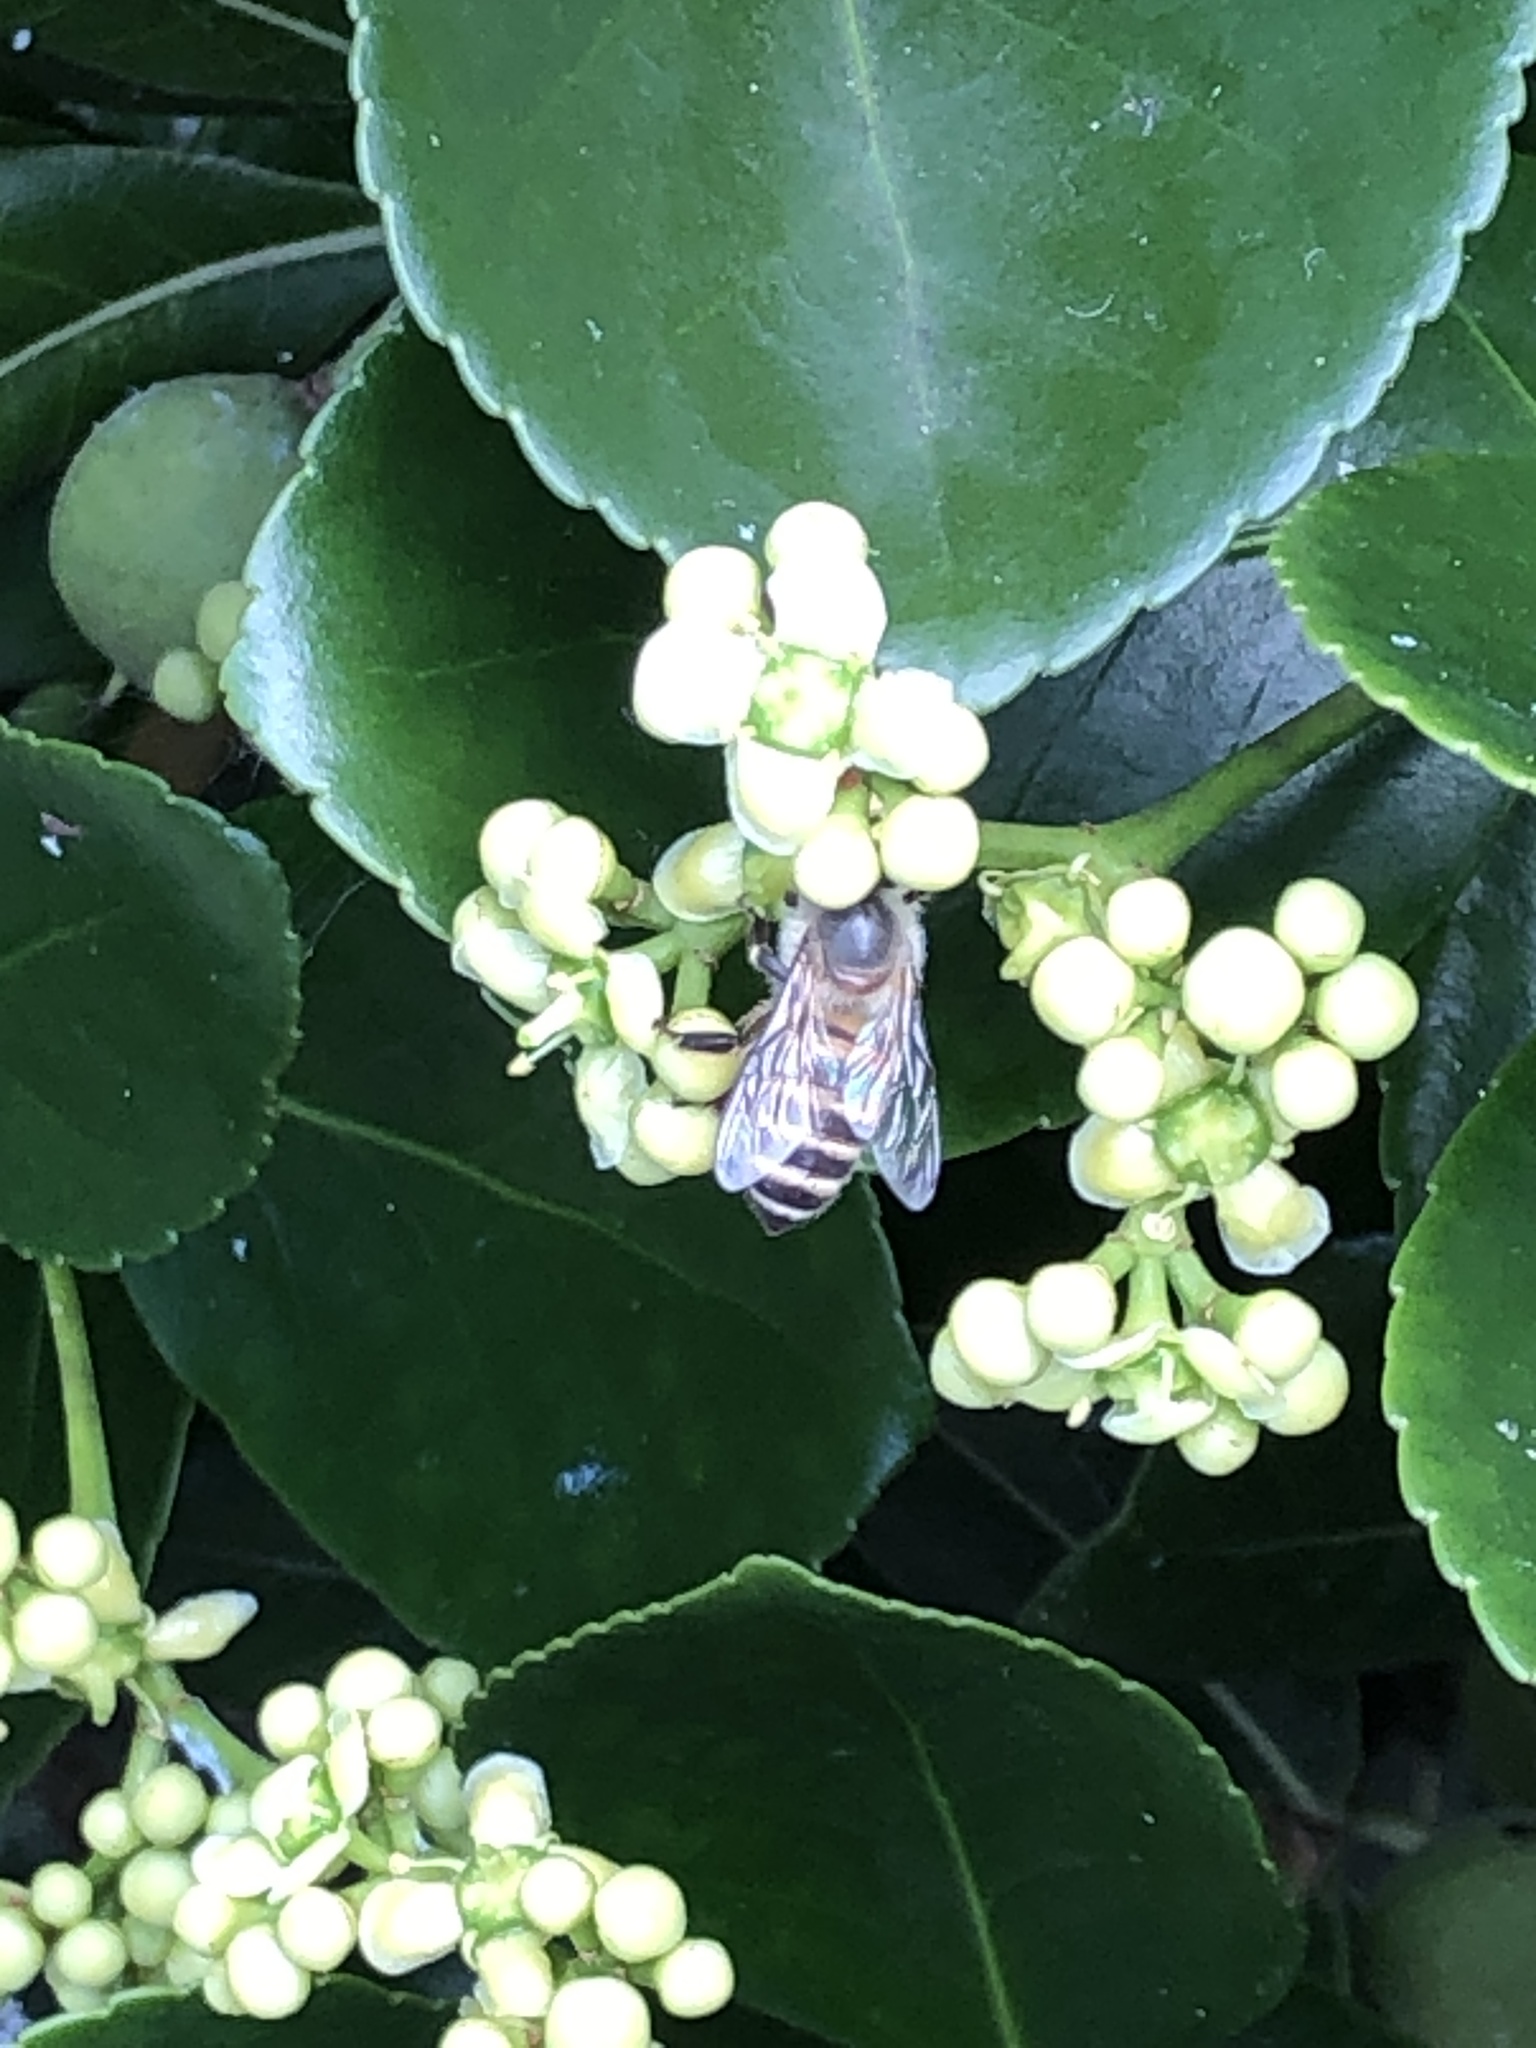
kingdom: Animalia
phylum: Arthropoda
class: Insecta
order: Hymenoptera
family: Apidae
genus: Apis
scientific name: Apis cerana
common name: Honey bee
